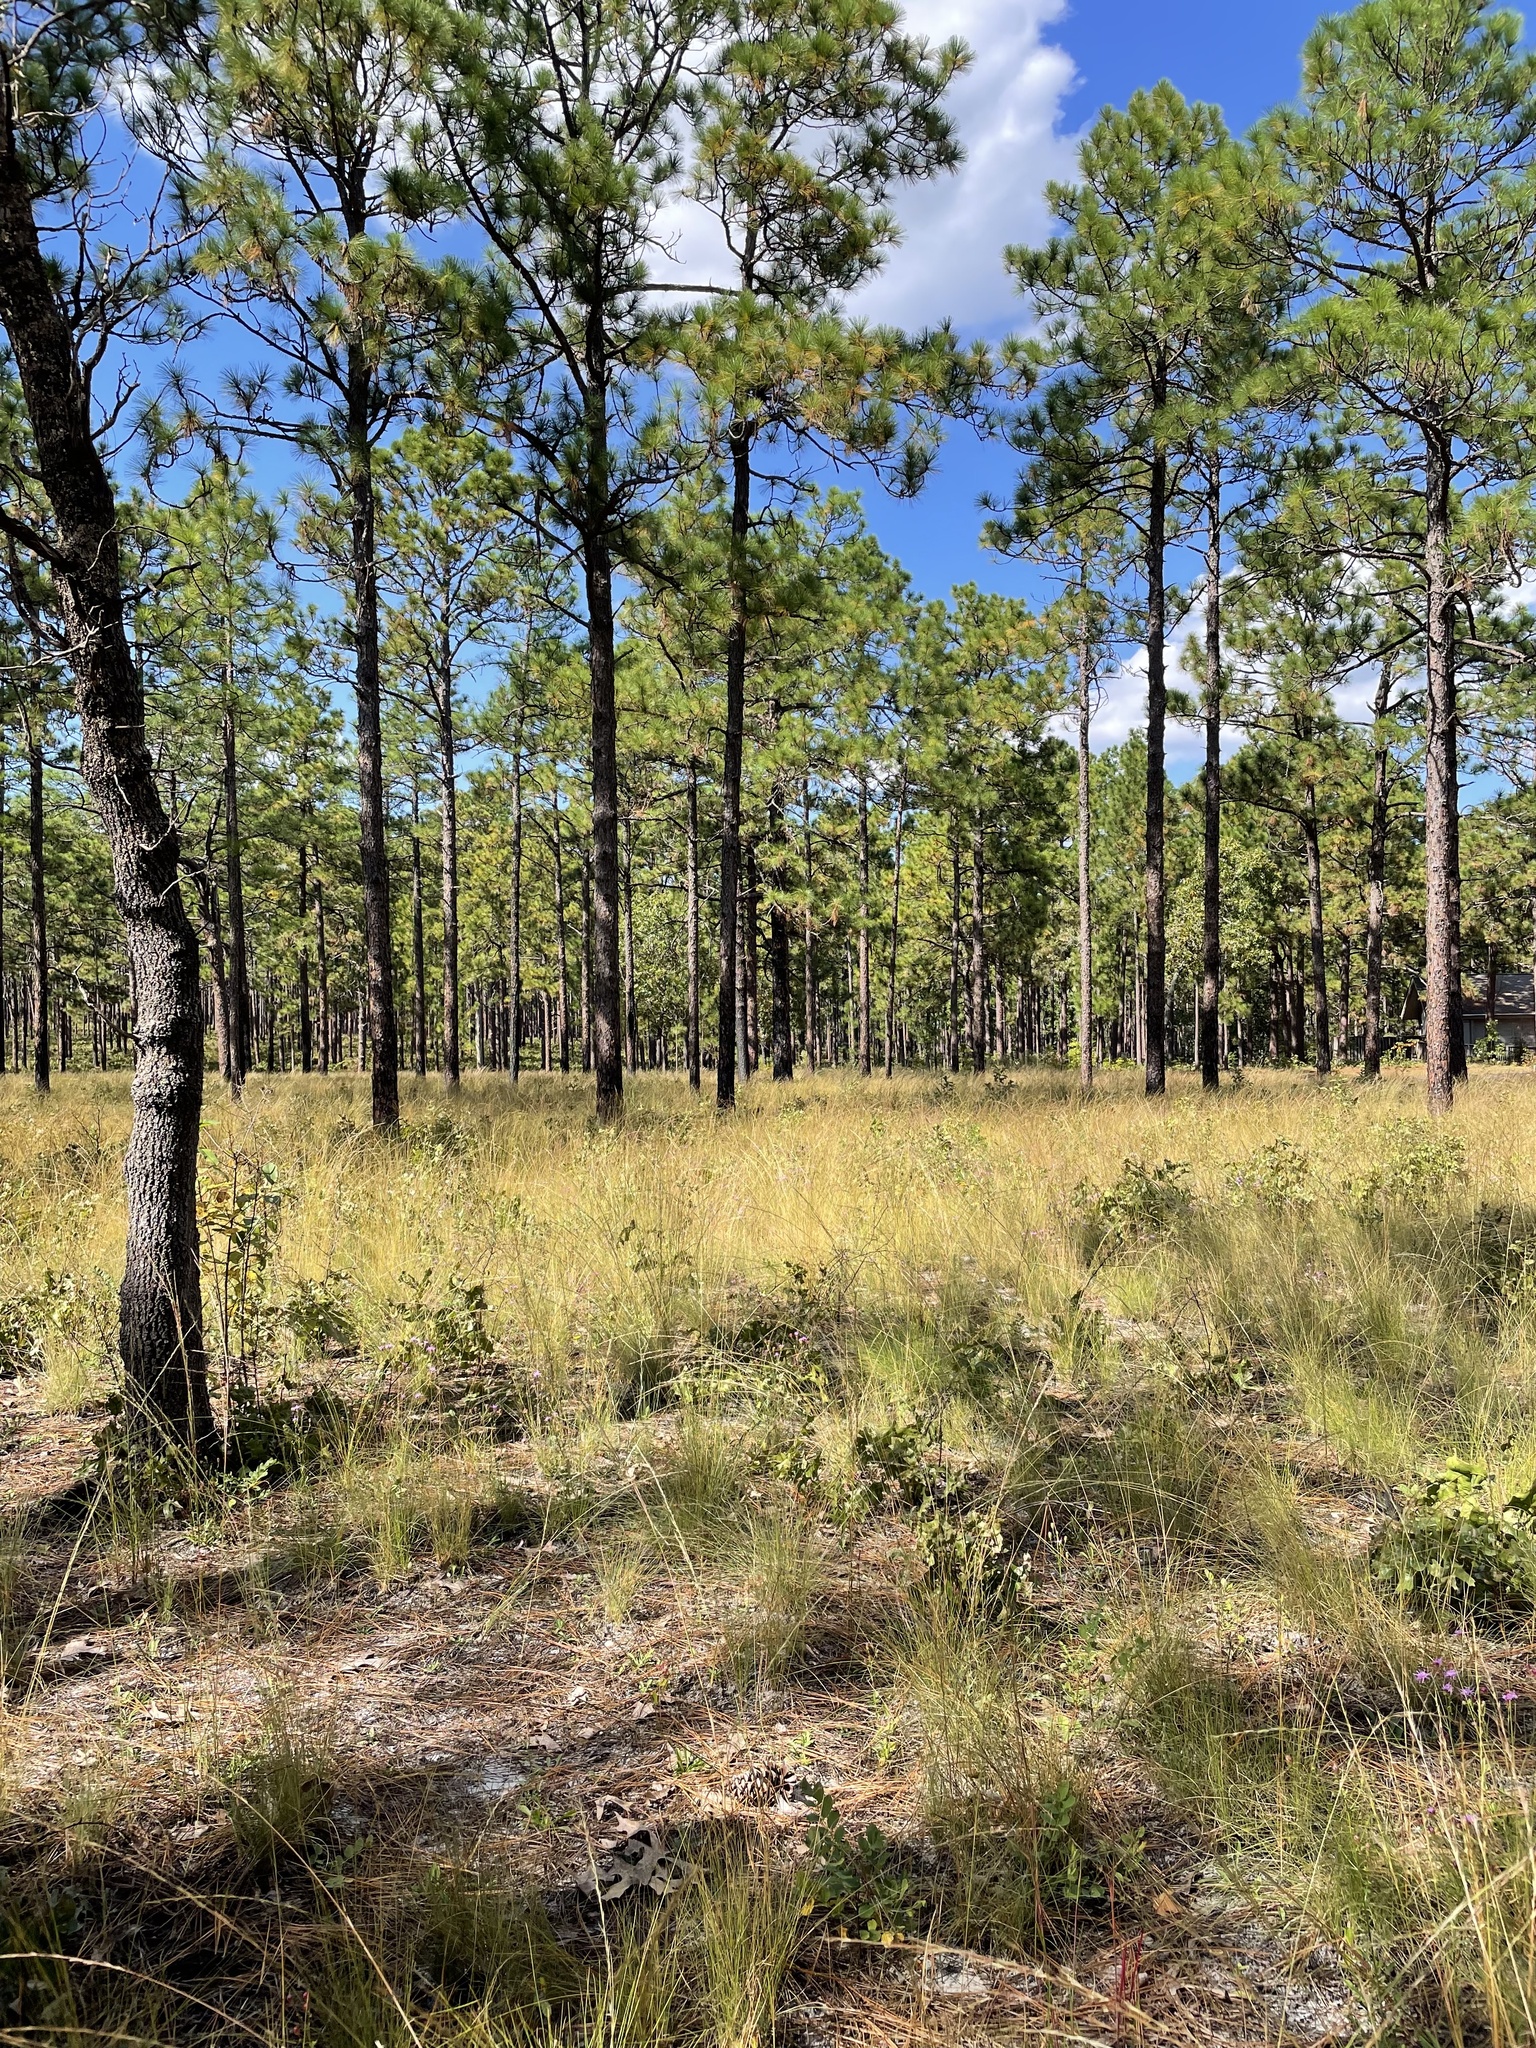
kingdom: Plantae
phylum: Tracheophyta
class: Pinopsida
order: Pinales
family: Pinaceae
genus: Pinus
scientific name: Pinus palustris
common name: Longleaf pine
